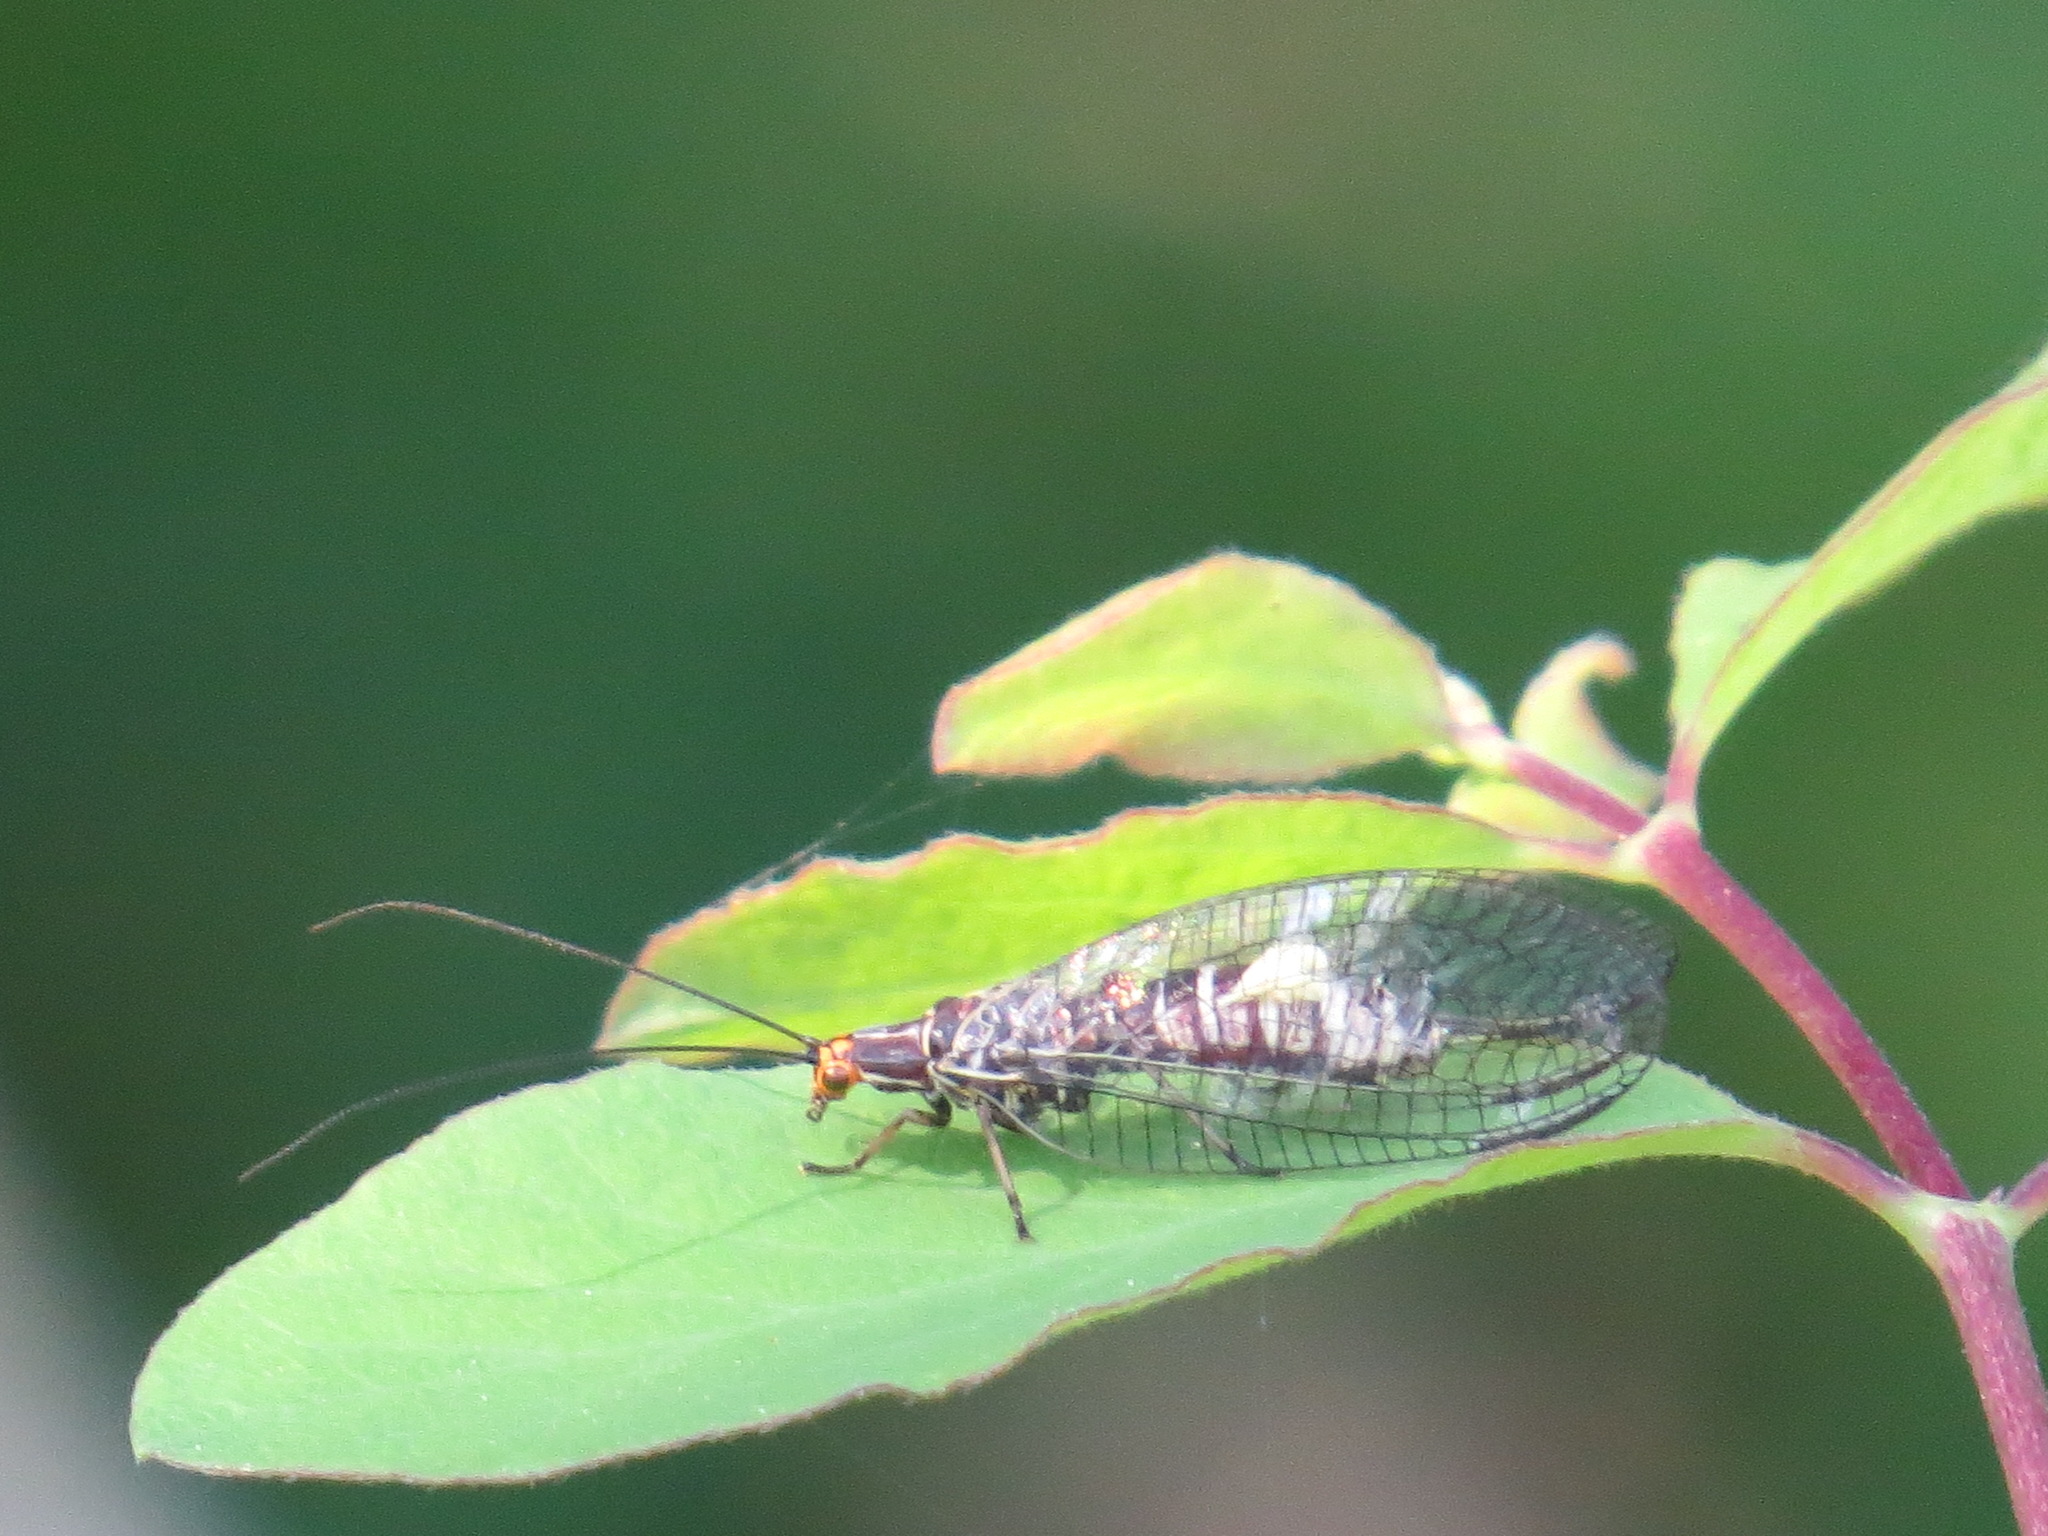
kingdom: Animalia
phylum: Arthropoda
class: Insecta
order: Neuroptera
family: Chrysopidae
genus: Nothochrysa
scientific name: Nothochrysa californica
